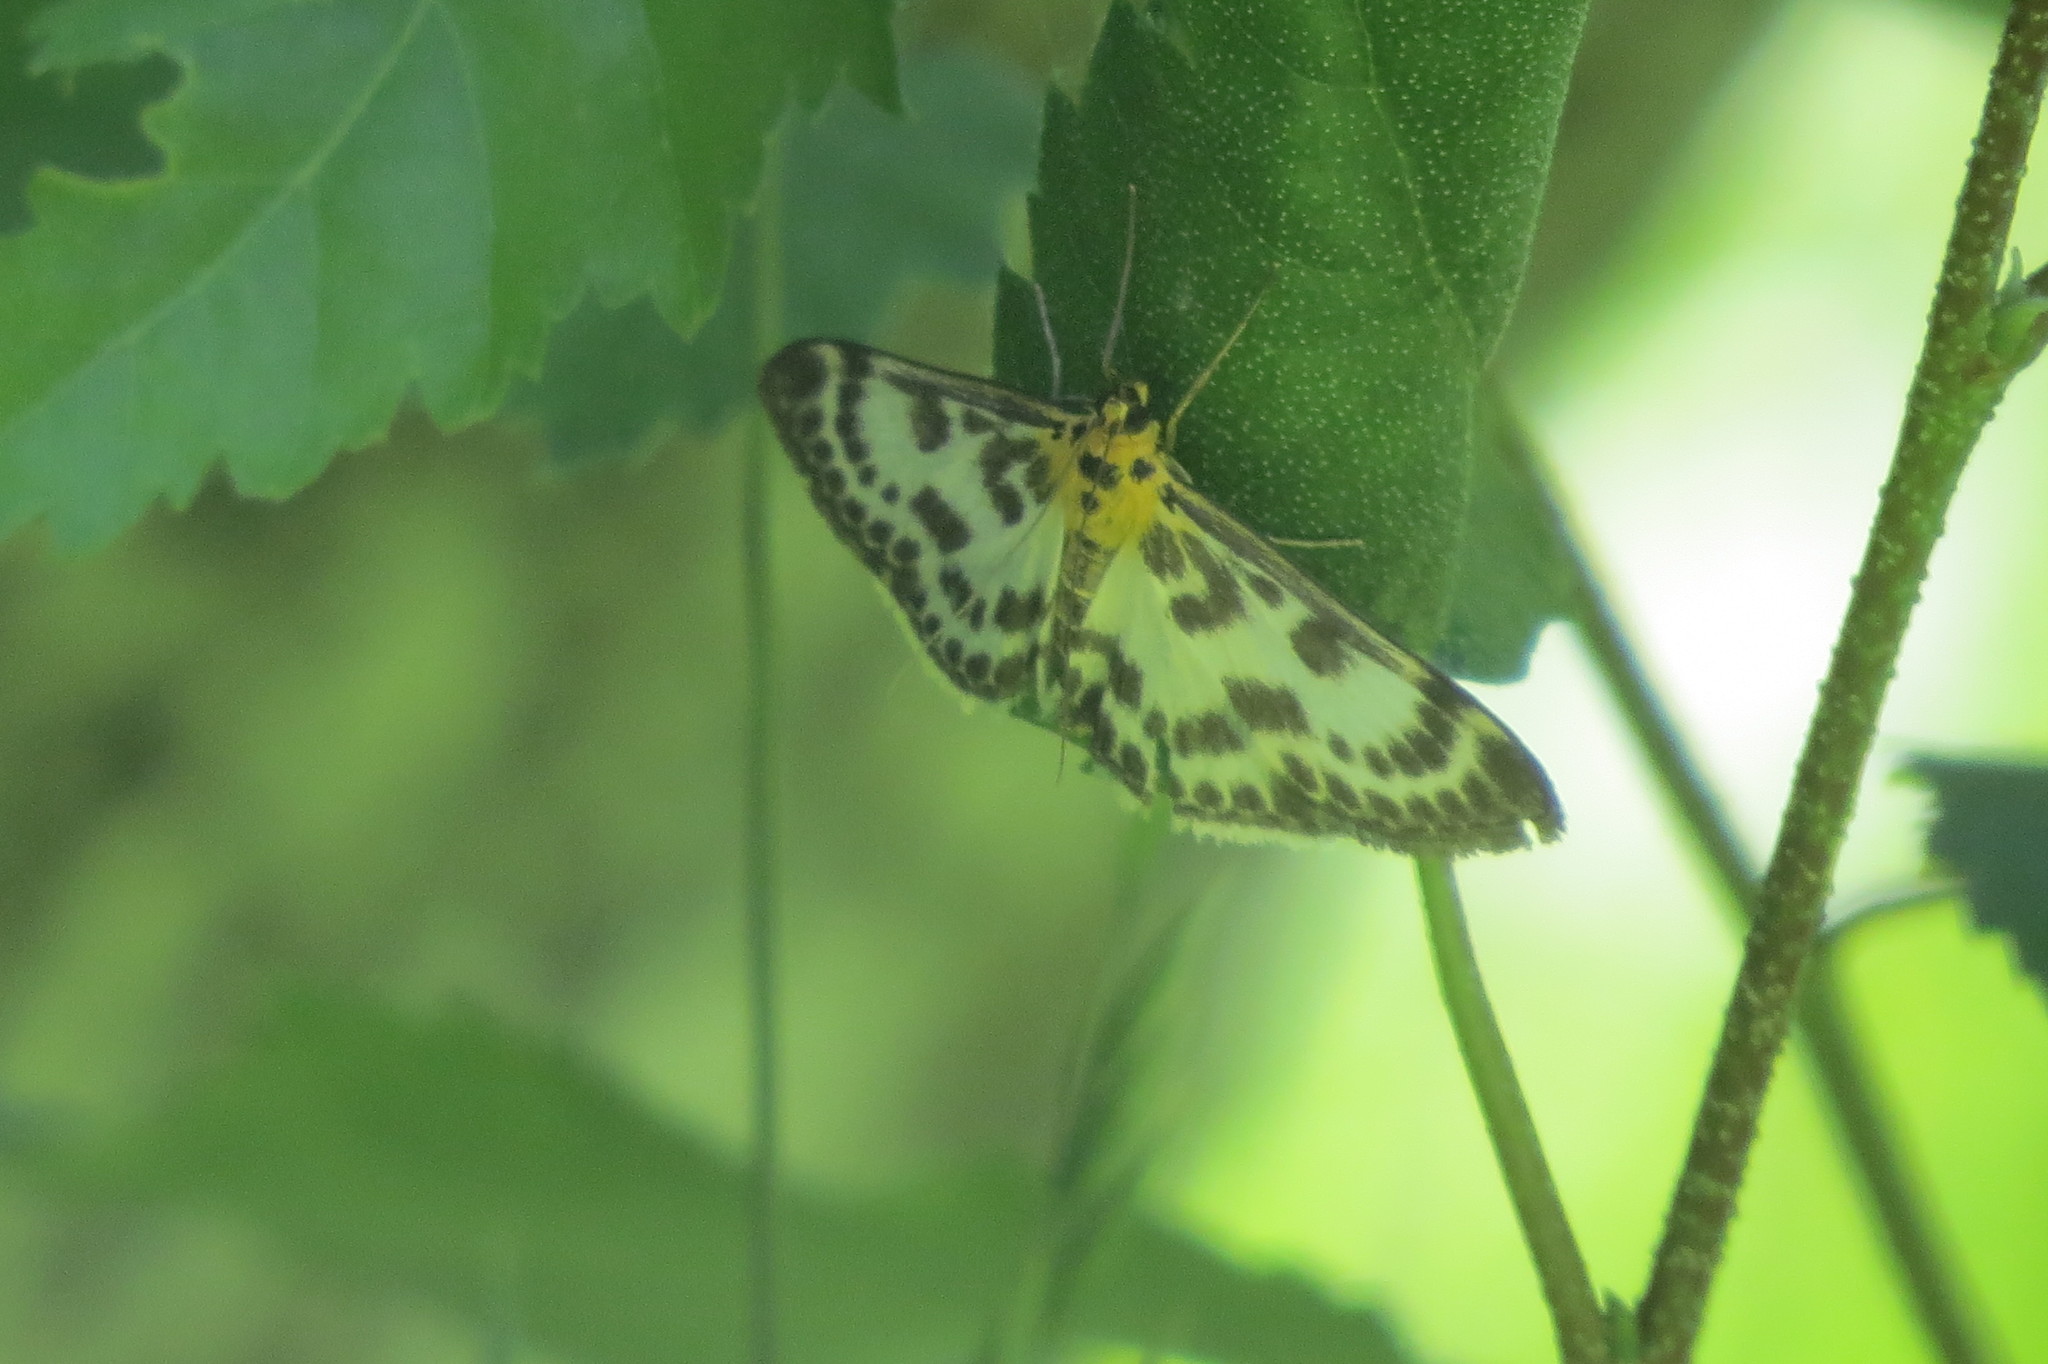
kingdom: Animalia
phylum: Arthropoda
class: Insecta
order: Lepidoptera
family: Crambidae
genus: Anania
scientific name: Anania hortulata
